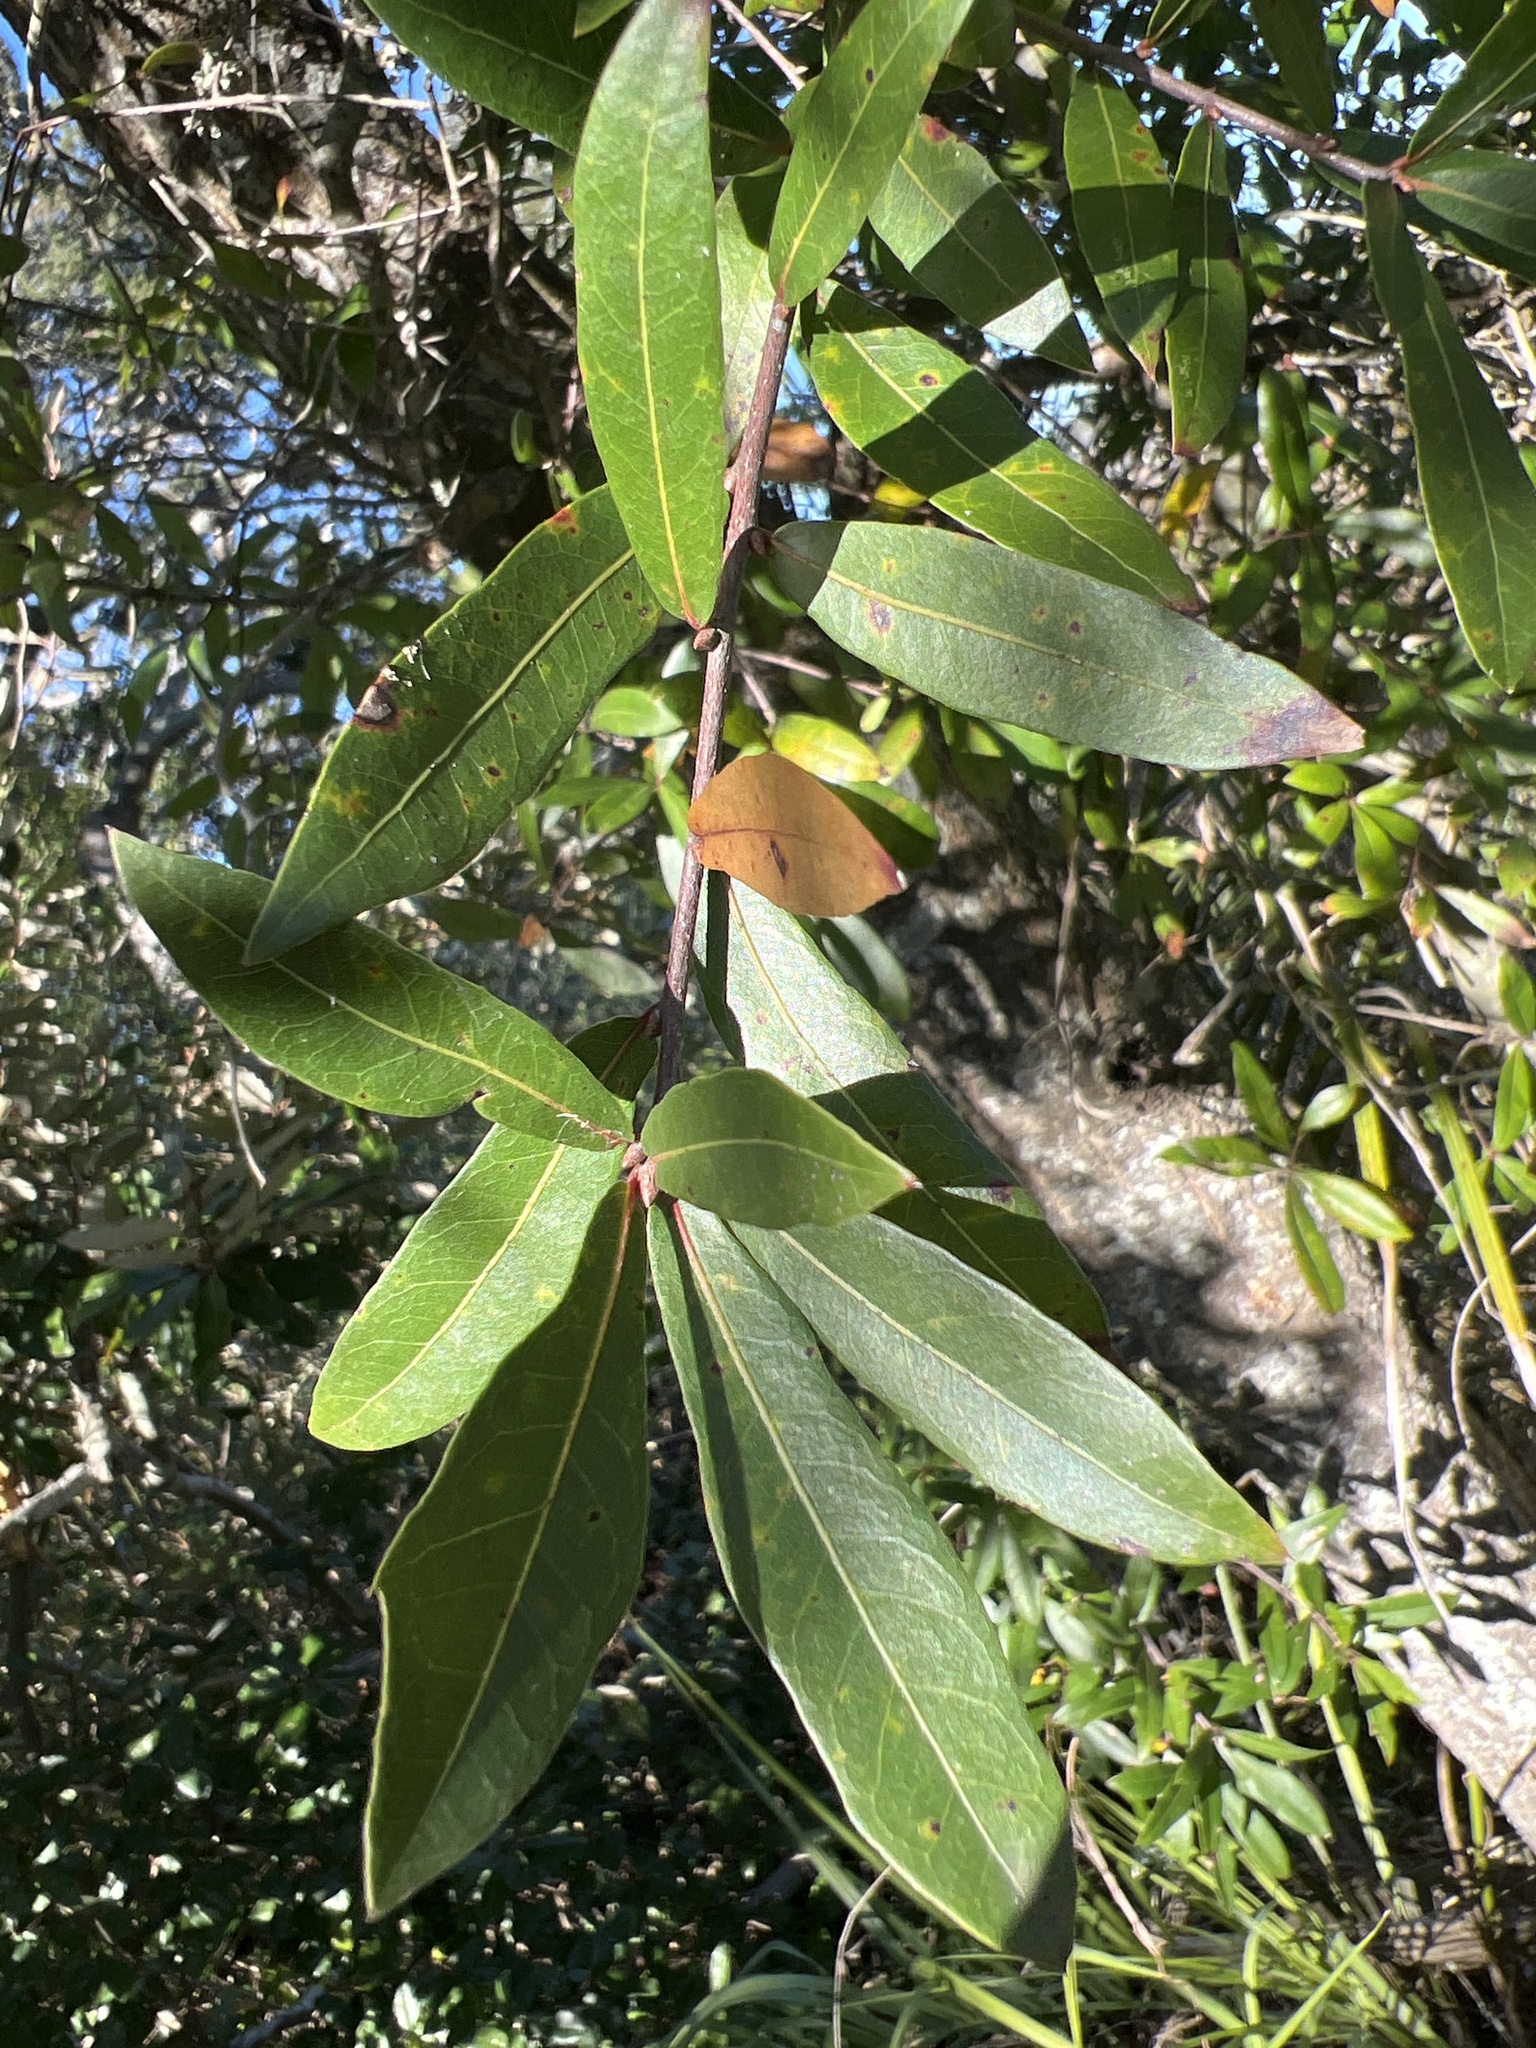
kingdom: Plantae
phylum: Tracheophyta
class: Magnoliopsida
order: Fagales
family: Fagaceae
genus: Quercus
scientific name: Quercus hemisphaerica
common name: Darlington oak
